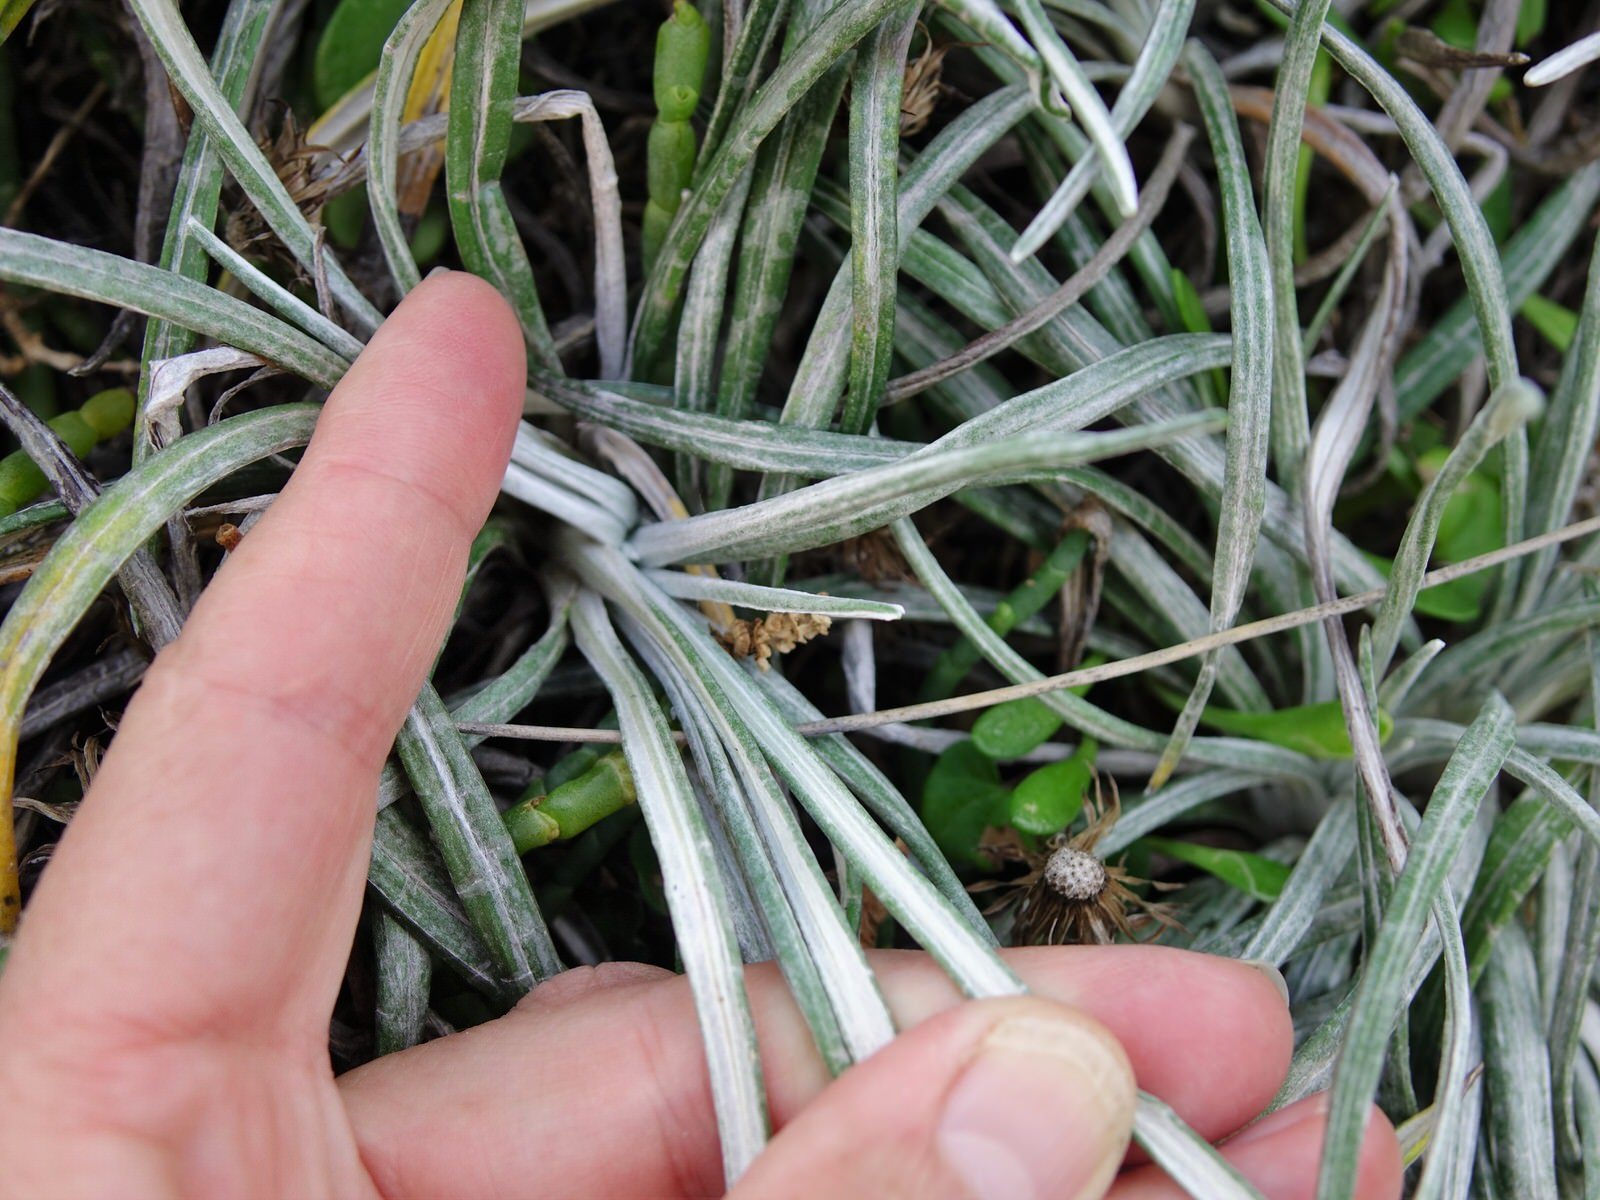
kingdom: Plantae
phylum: Tracheophyta
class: Magnoliopsida
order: Asterales
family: Asteraceae
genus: Celmisia
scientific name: Celmisia major
